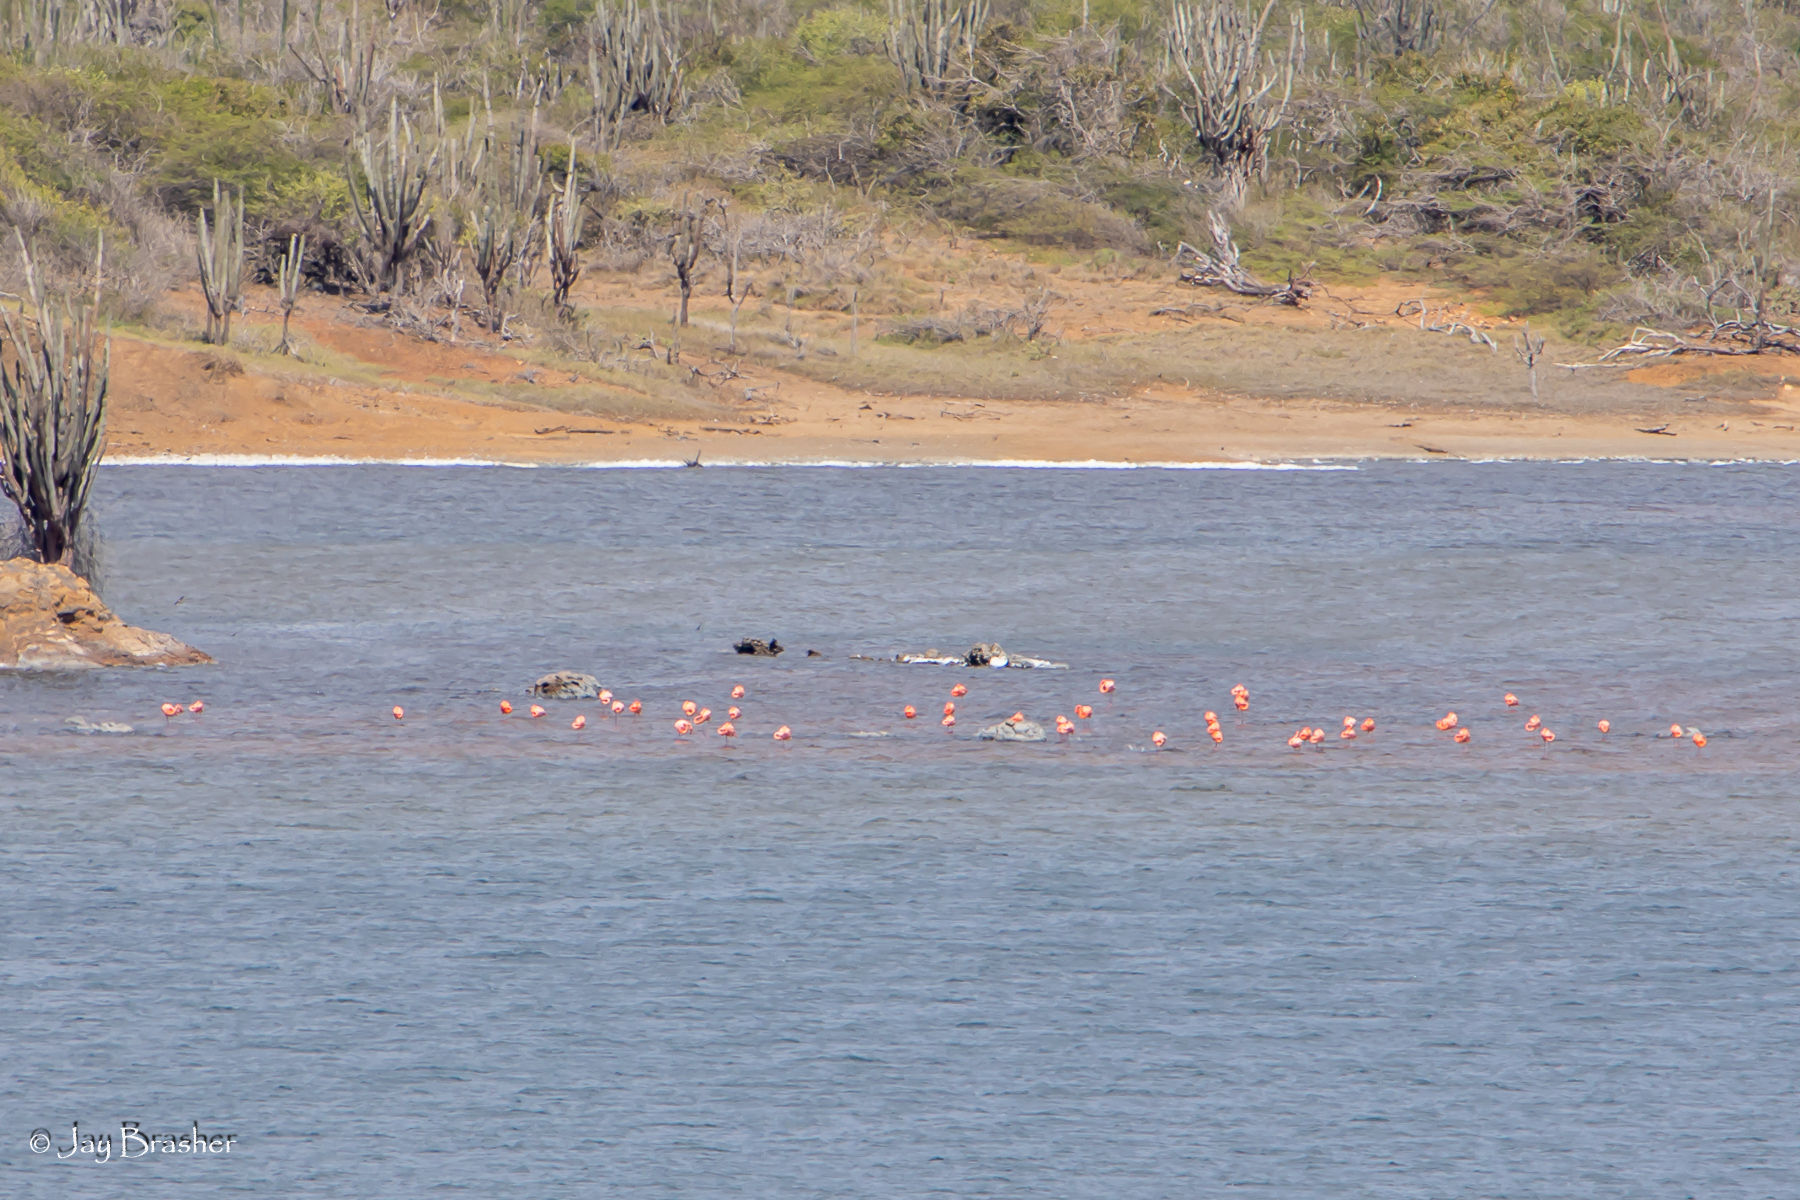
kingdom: Animalia
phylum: Chordata
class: Aves
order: Phoenicopteriformes
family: Phoenicopteridae
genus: Phoenicopterus
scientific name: Phoenicopterus ruber
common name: American flamingo
